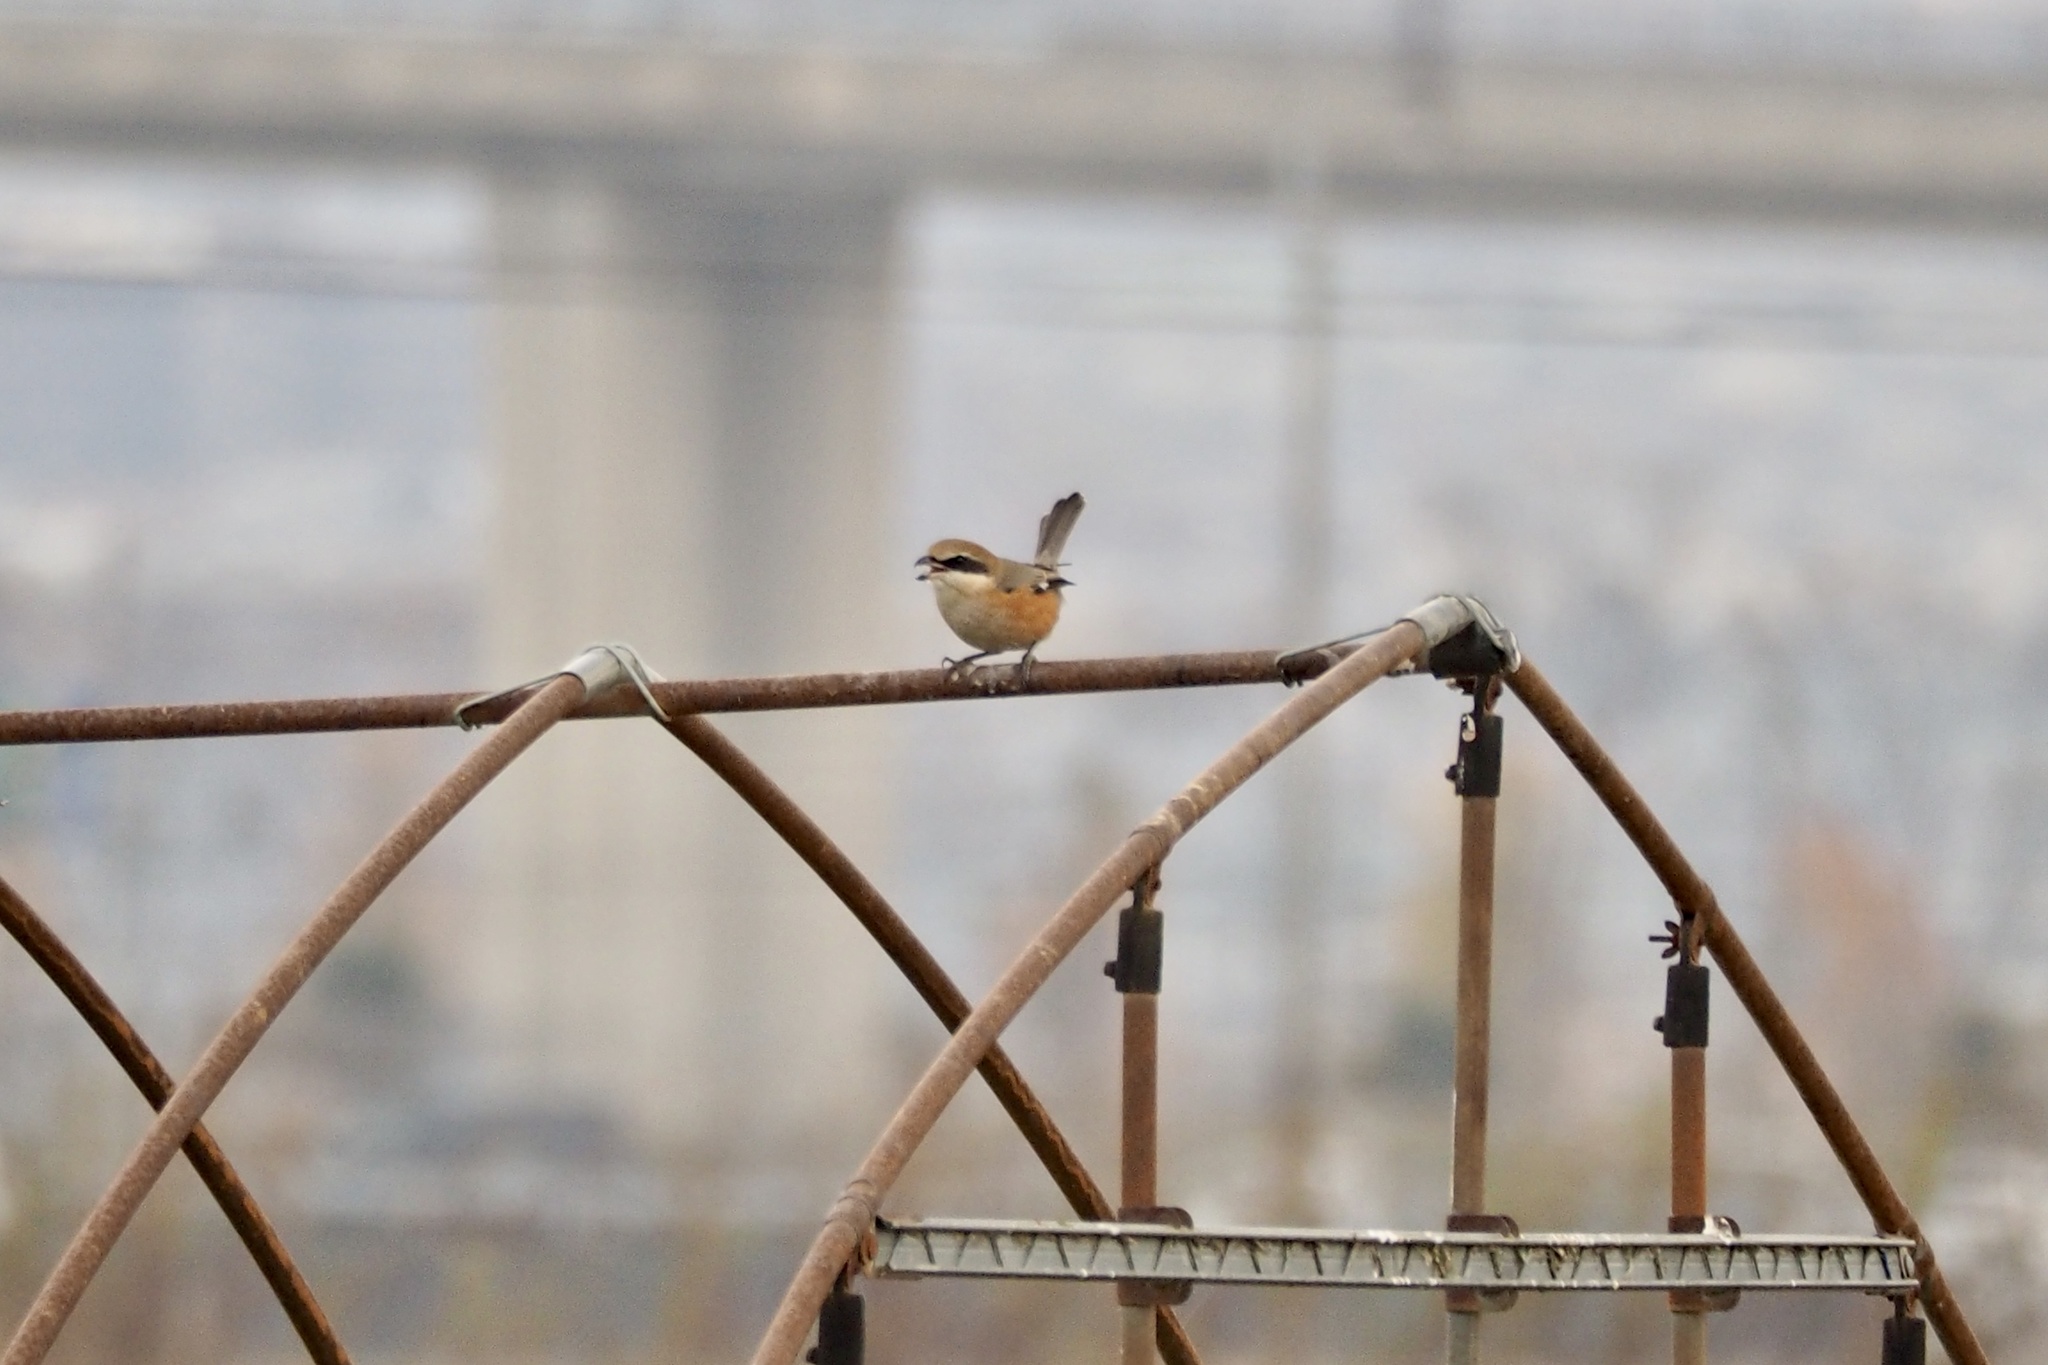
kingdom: Animalia
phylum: Chordata
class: Aves
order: Passeriformes
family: Laniidae
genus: Lanius
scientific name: Lanius bucephalus
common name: Bull-headed shrike
